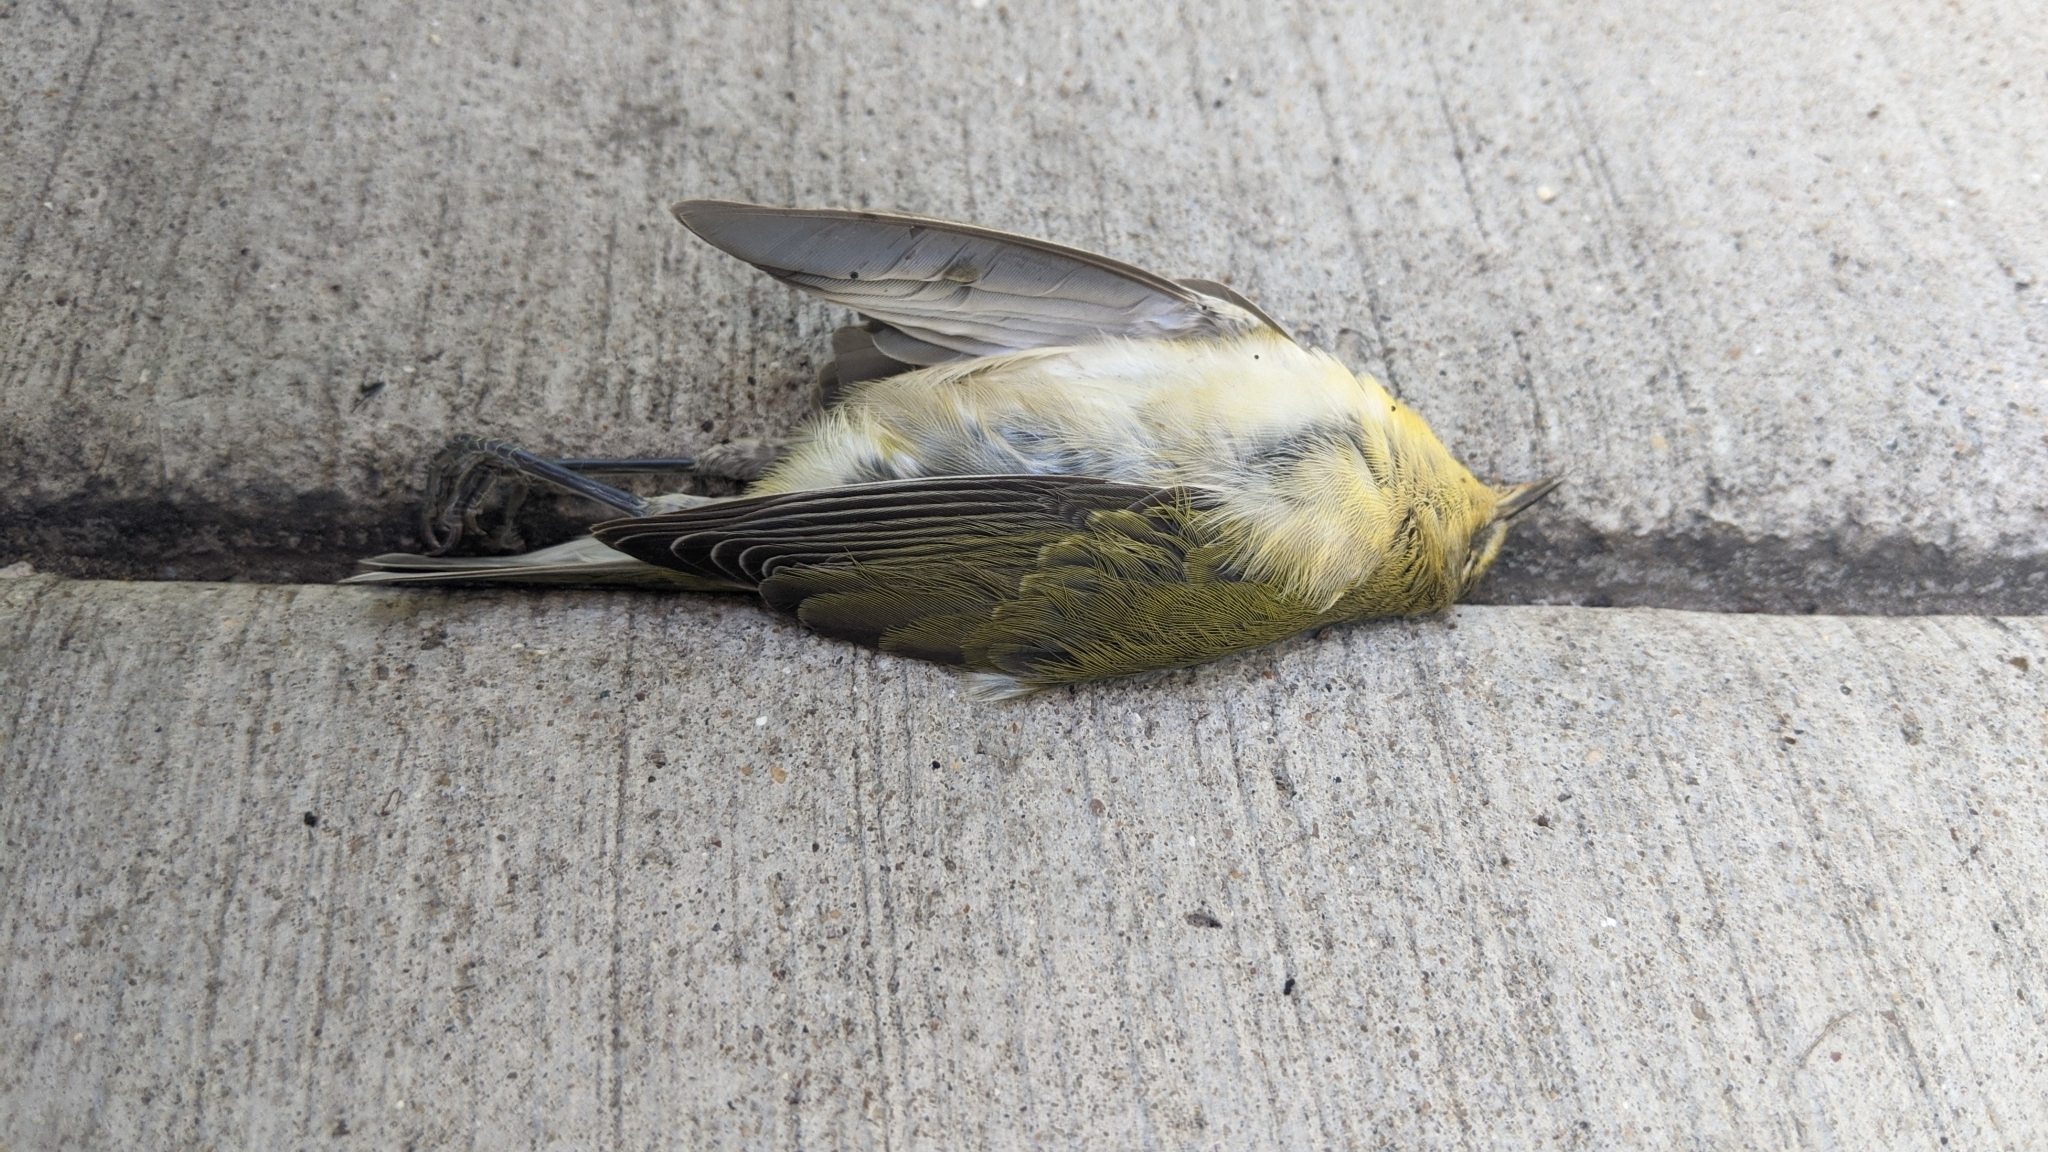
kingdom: Animalia
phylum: Chordata
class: Aves
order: Passeriformes
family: Parulidae
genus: Leiothlypis
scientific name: Leiothlypis peregrina
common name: Tennessee warbler
